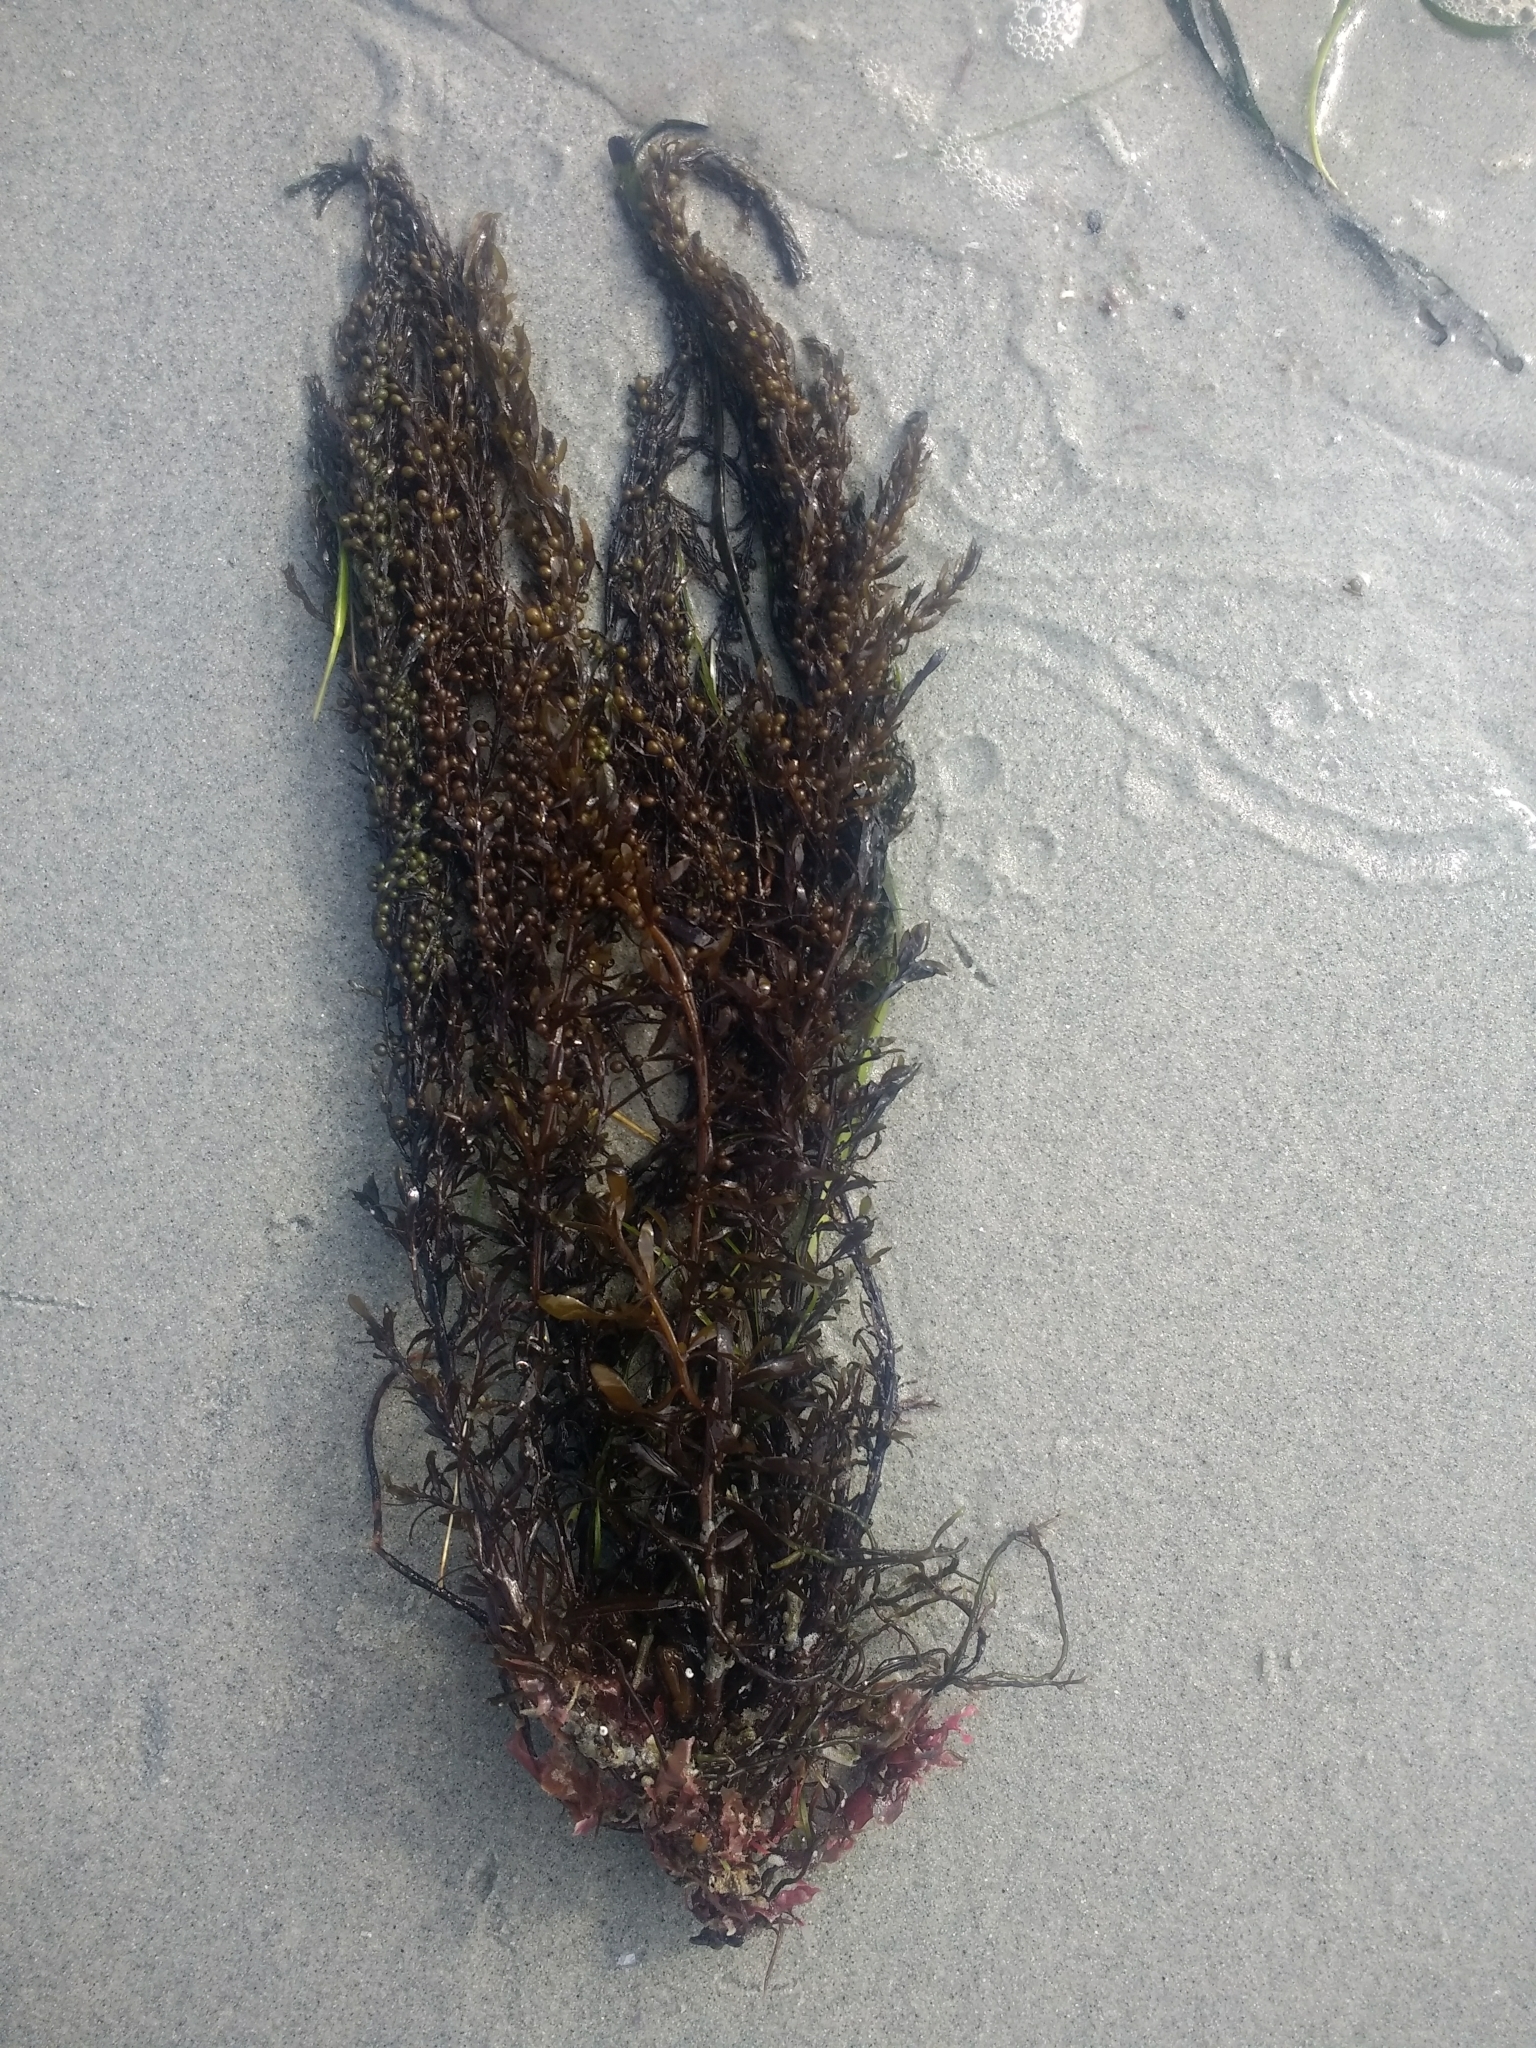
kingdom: Chromista
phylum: Ochrophyta
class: Phaeophyceae
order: Fucales
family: Sargassaceae
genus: Sargassum
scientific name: Sargassum muticum
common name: Japweed
